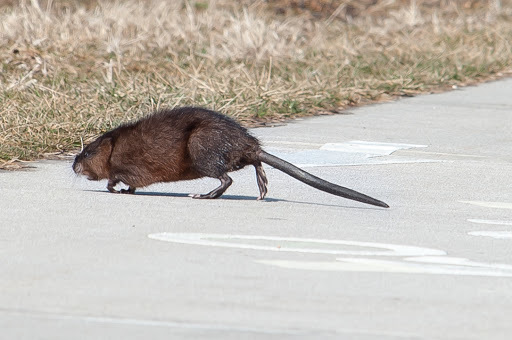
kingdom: Animalia
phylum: Chordata
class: Mammalia
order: Rodentia
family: Cricetidae
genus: Ondatra
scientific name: Ondatra zibethicus
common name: Muskrat
